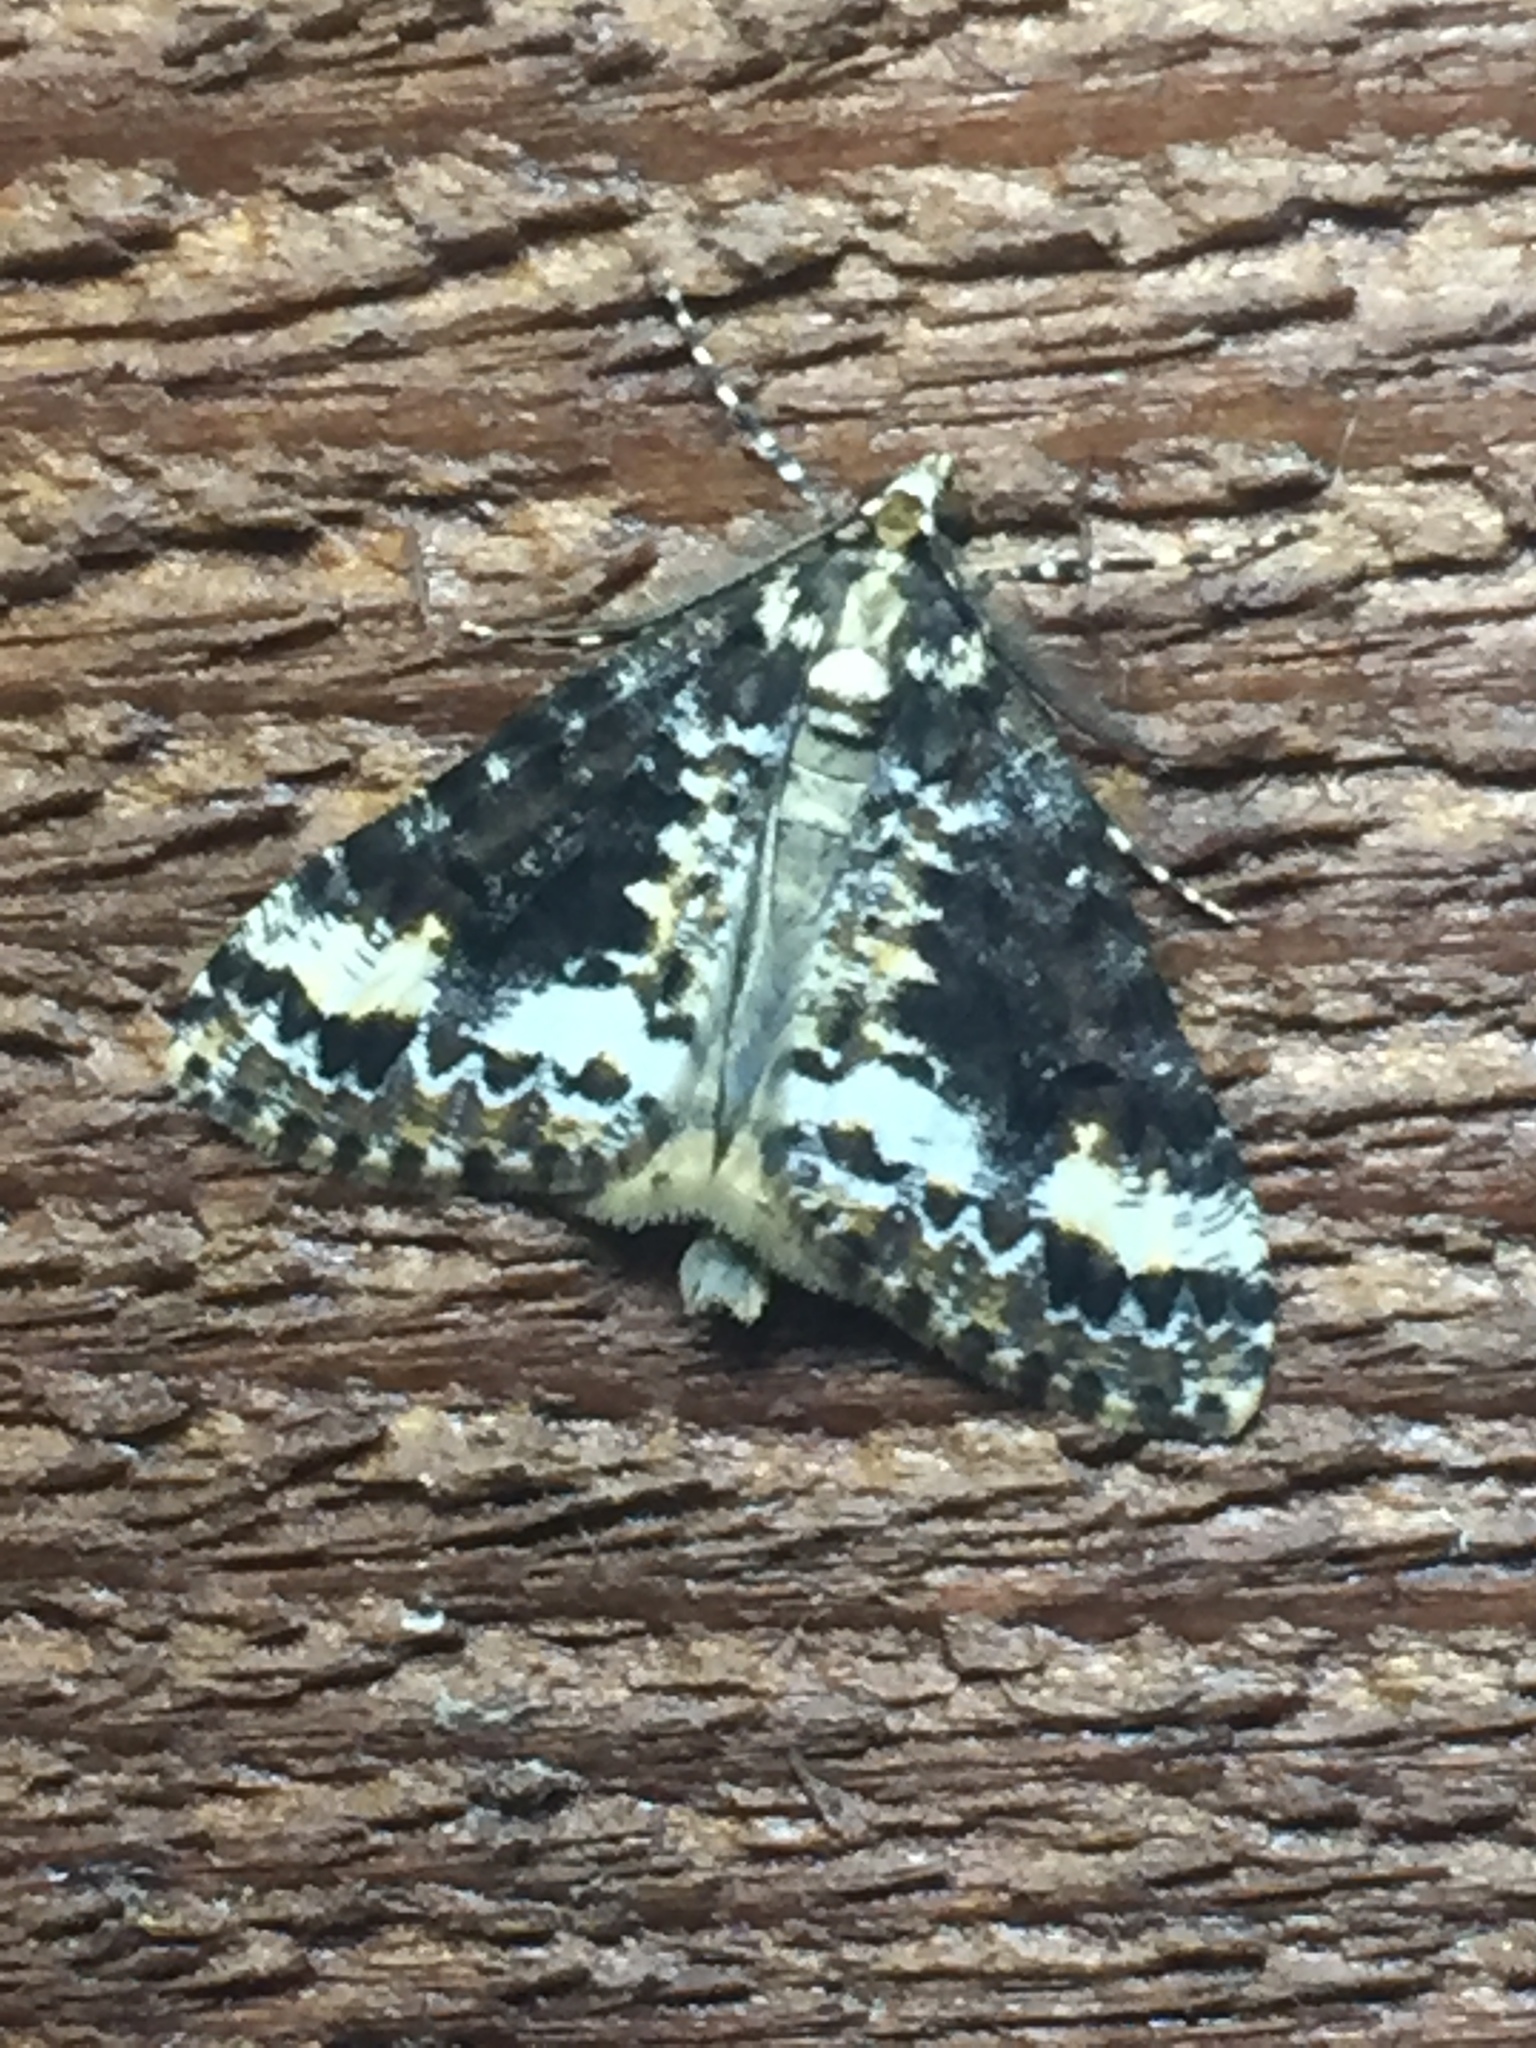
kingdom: Animalia
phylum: Arthropoda
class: Insecta
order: Lepidoptera
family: Geometridae
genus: Pseudocoremia
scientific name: Pseudocoremia leucelaea
